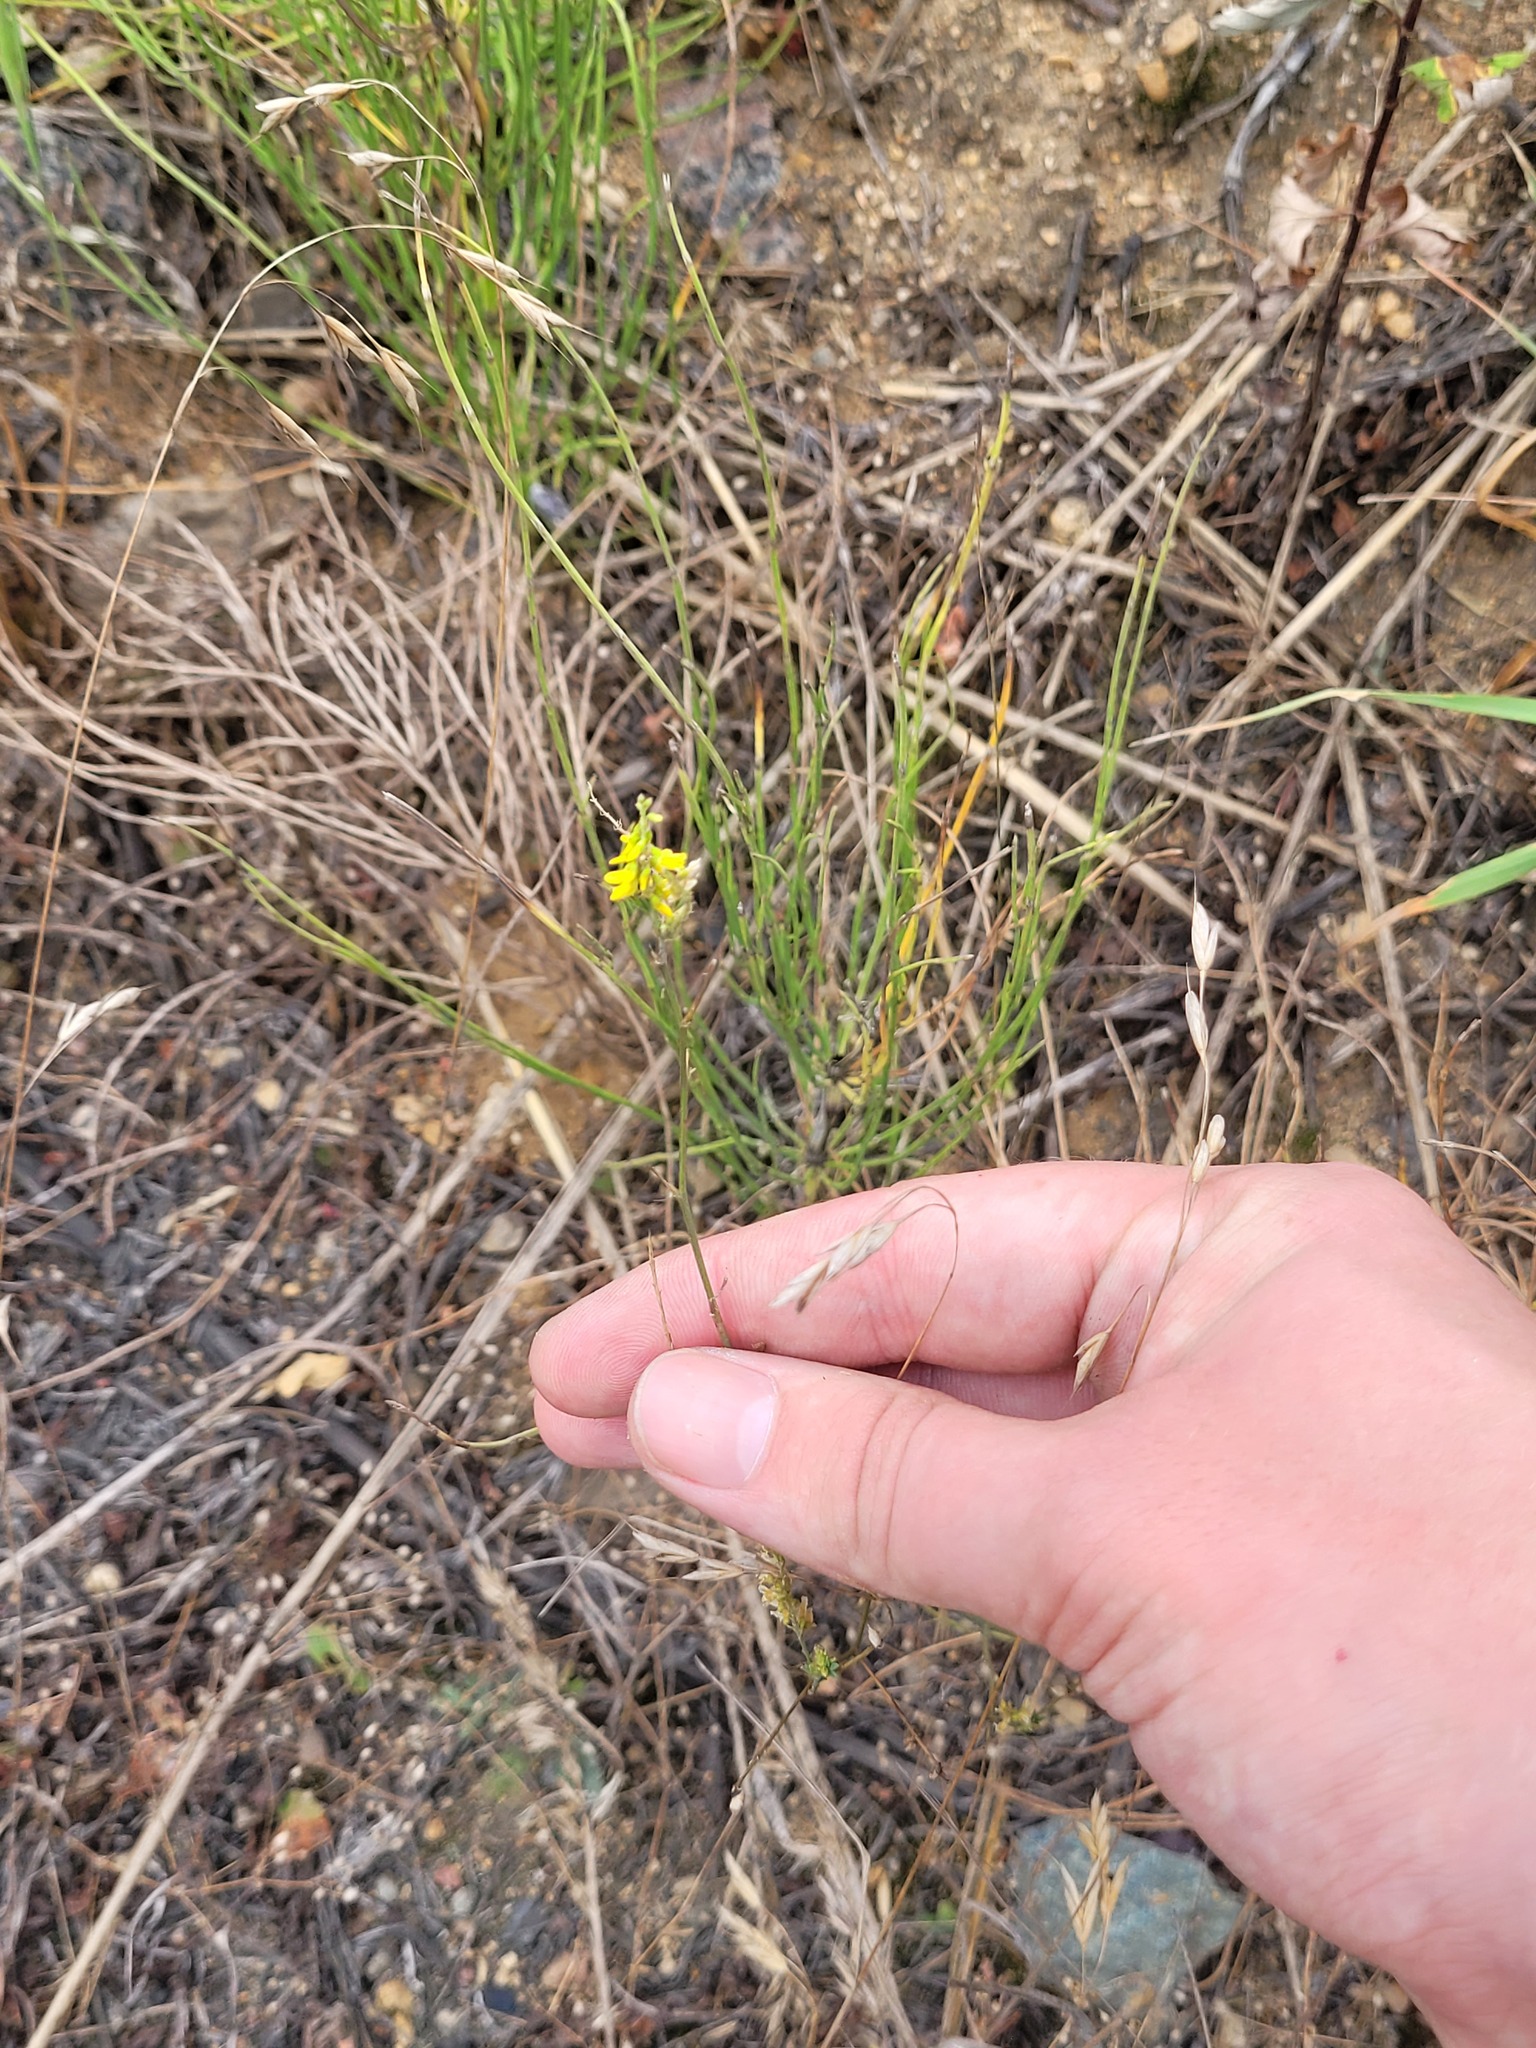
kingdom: Plantae
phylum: Tracheophyta
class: Magnoliopsida
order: Fabales
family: Fabaceae
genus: Melilotus
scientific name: Melilotus officinalis
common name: Sweetclover
